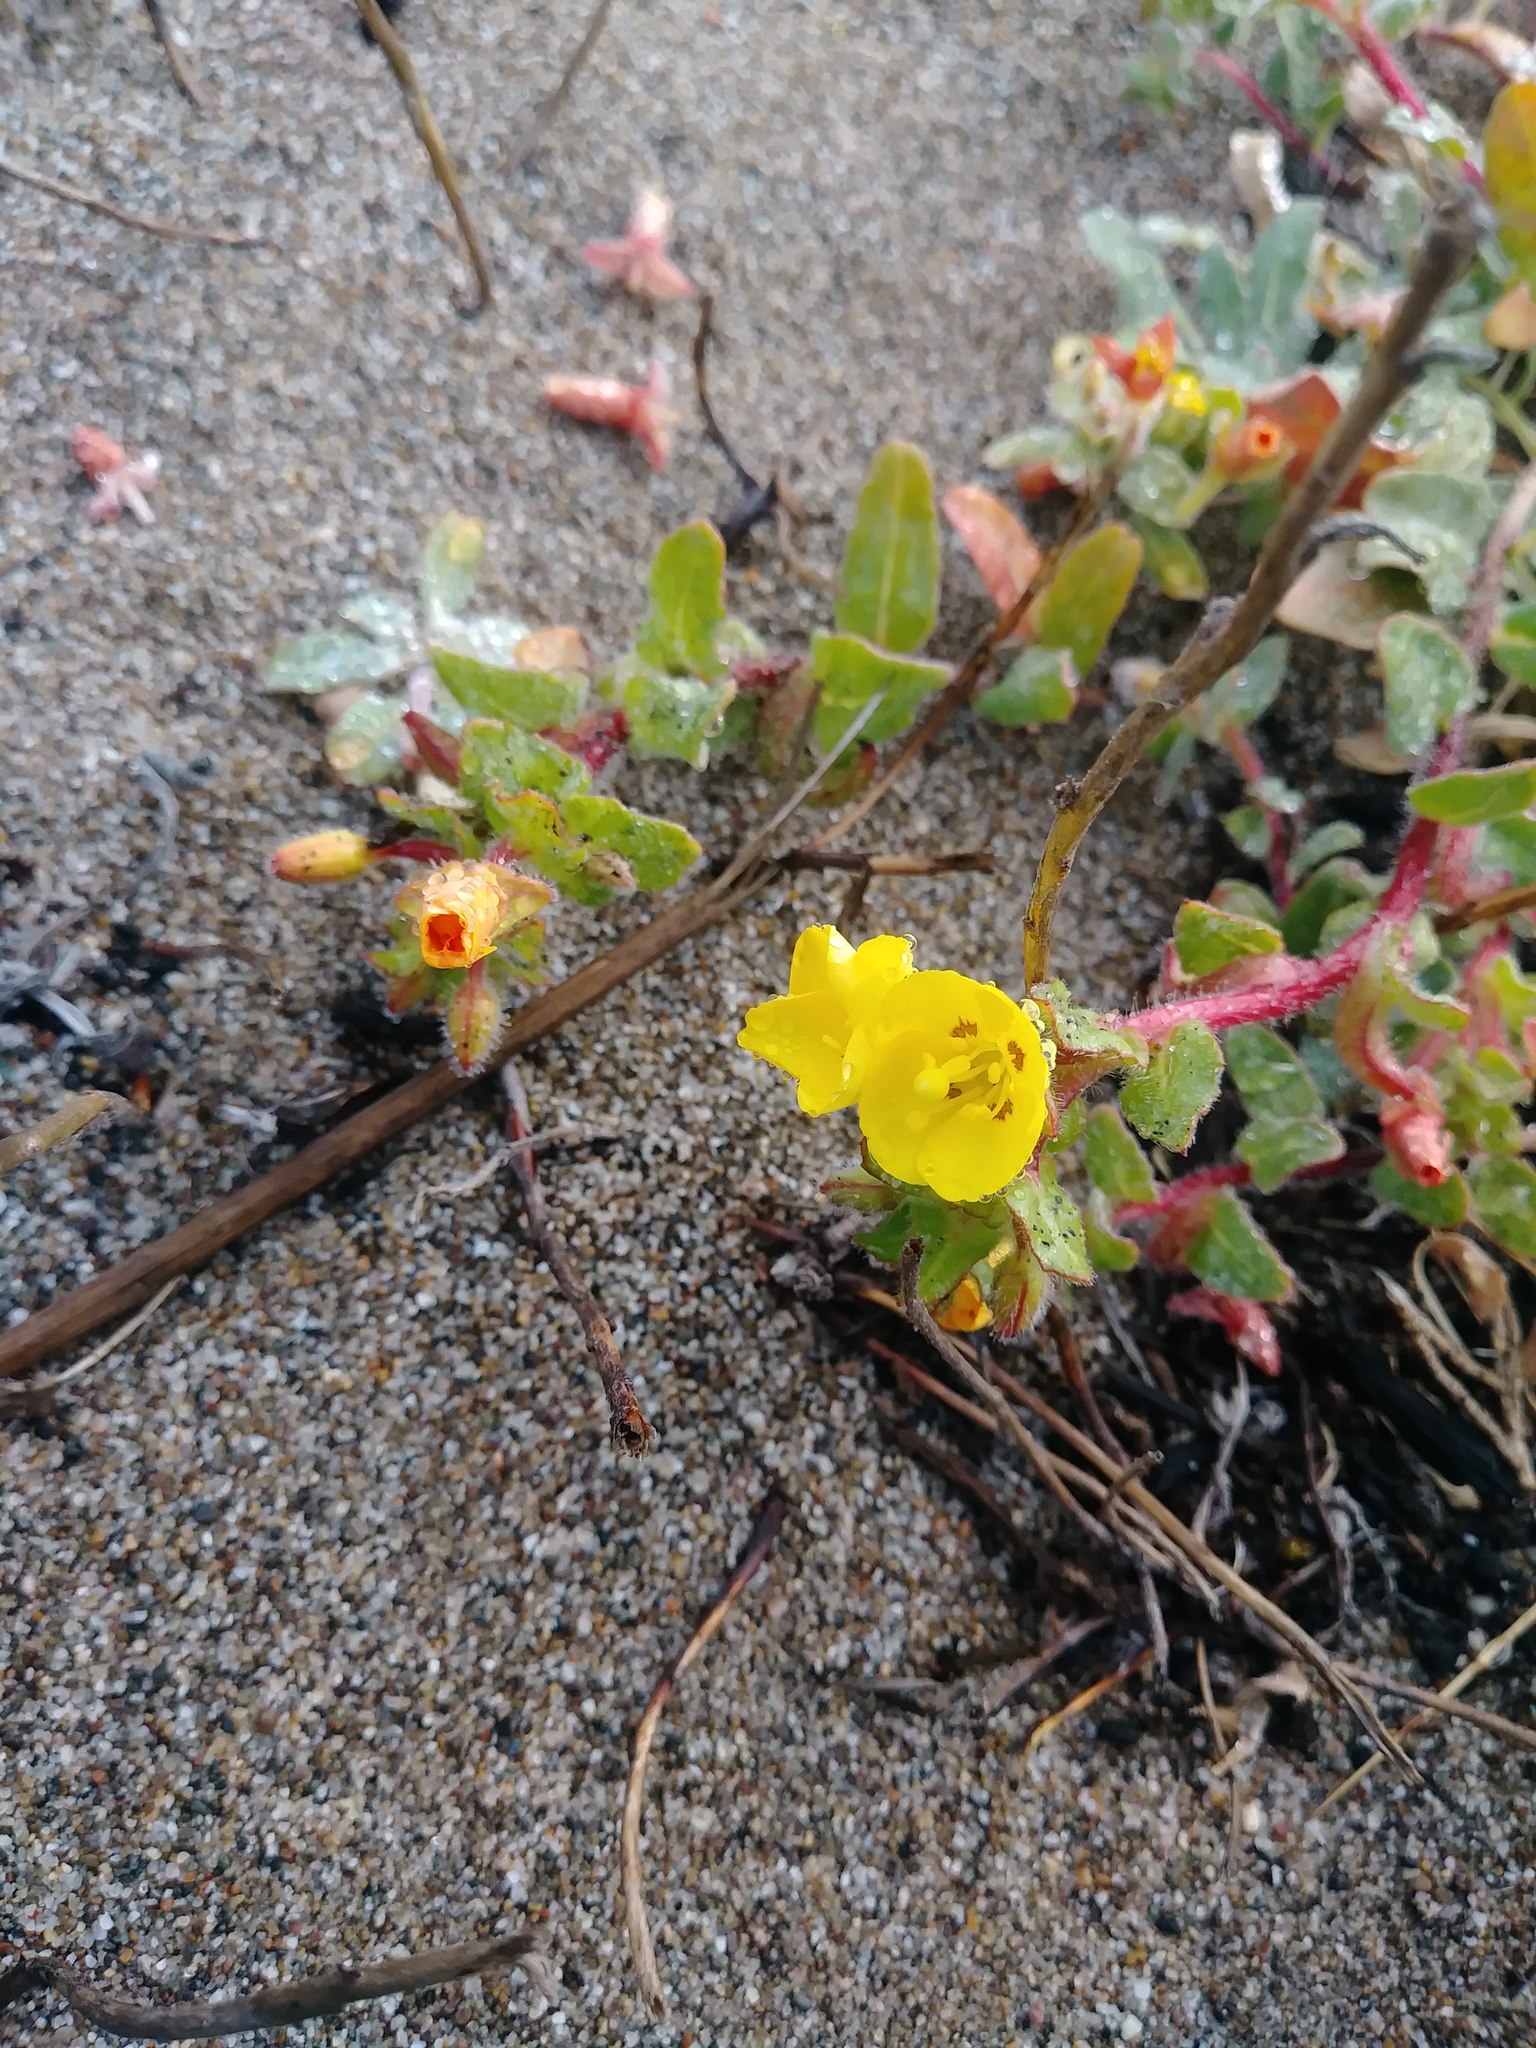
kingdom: Plantae
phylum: Tracheophyta
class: Magnoliopsida
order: Myrtales
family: Onagraceae
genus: Camissoniopsis
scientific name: Camissoniopsis cheiranthifolia
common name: Beach suncup
